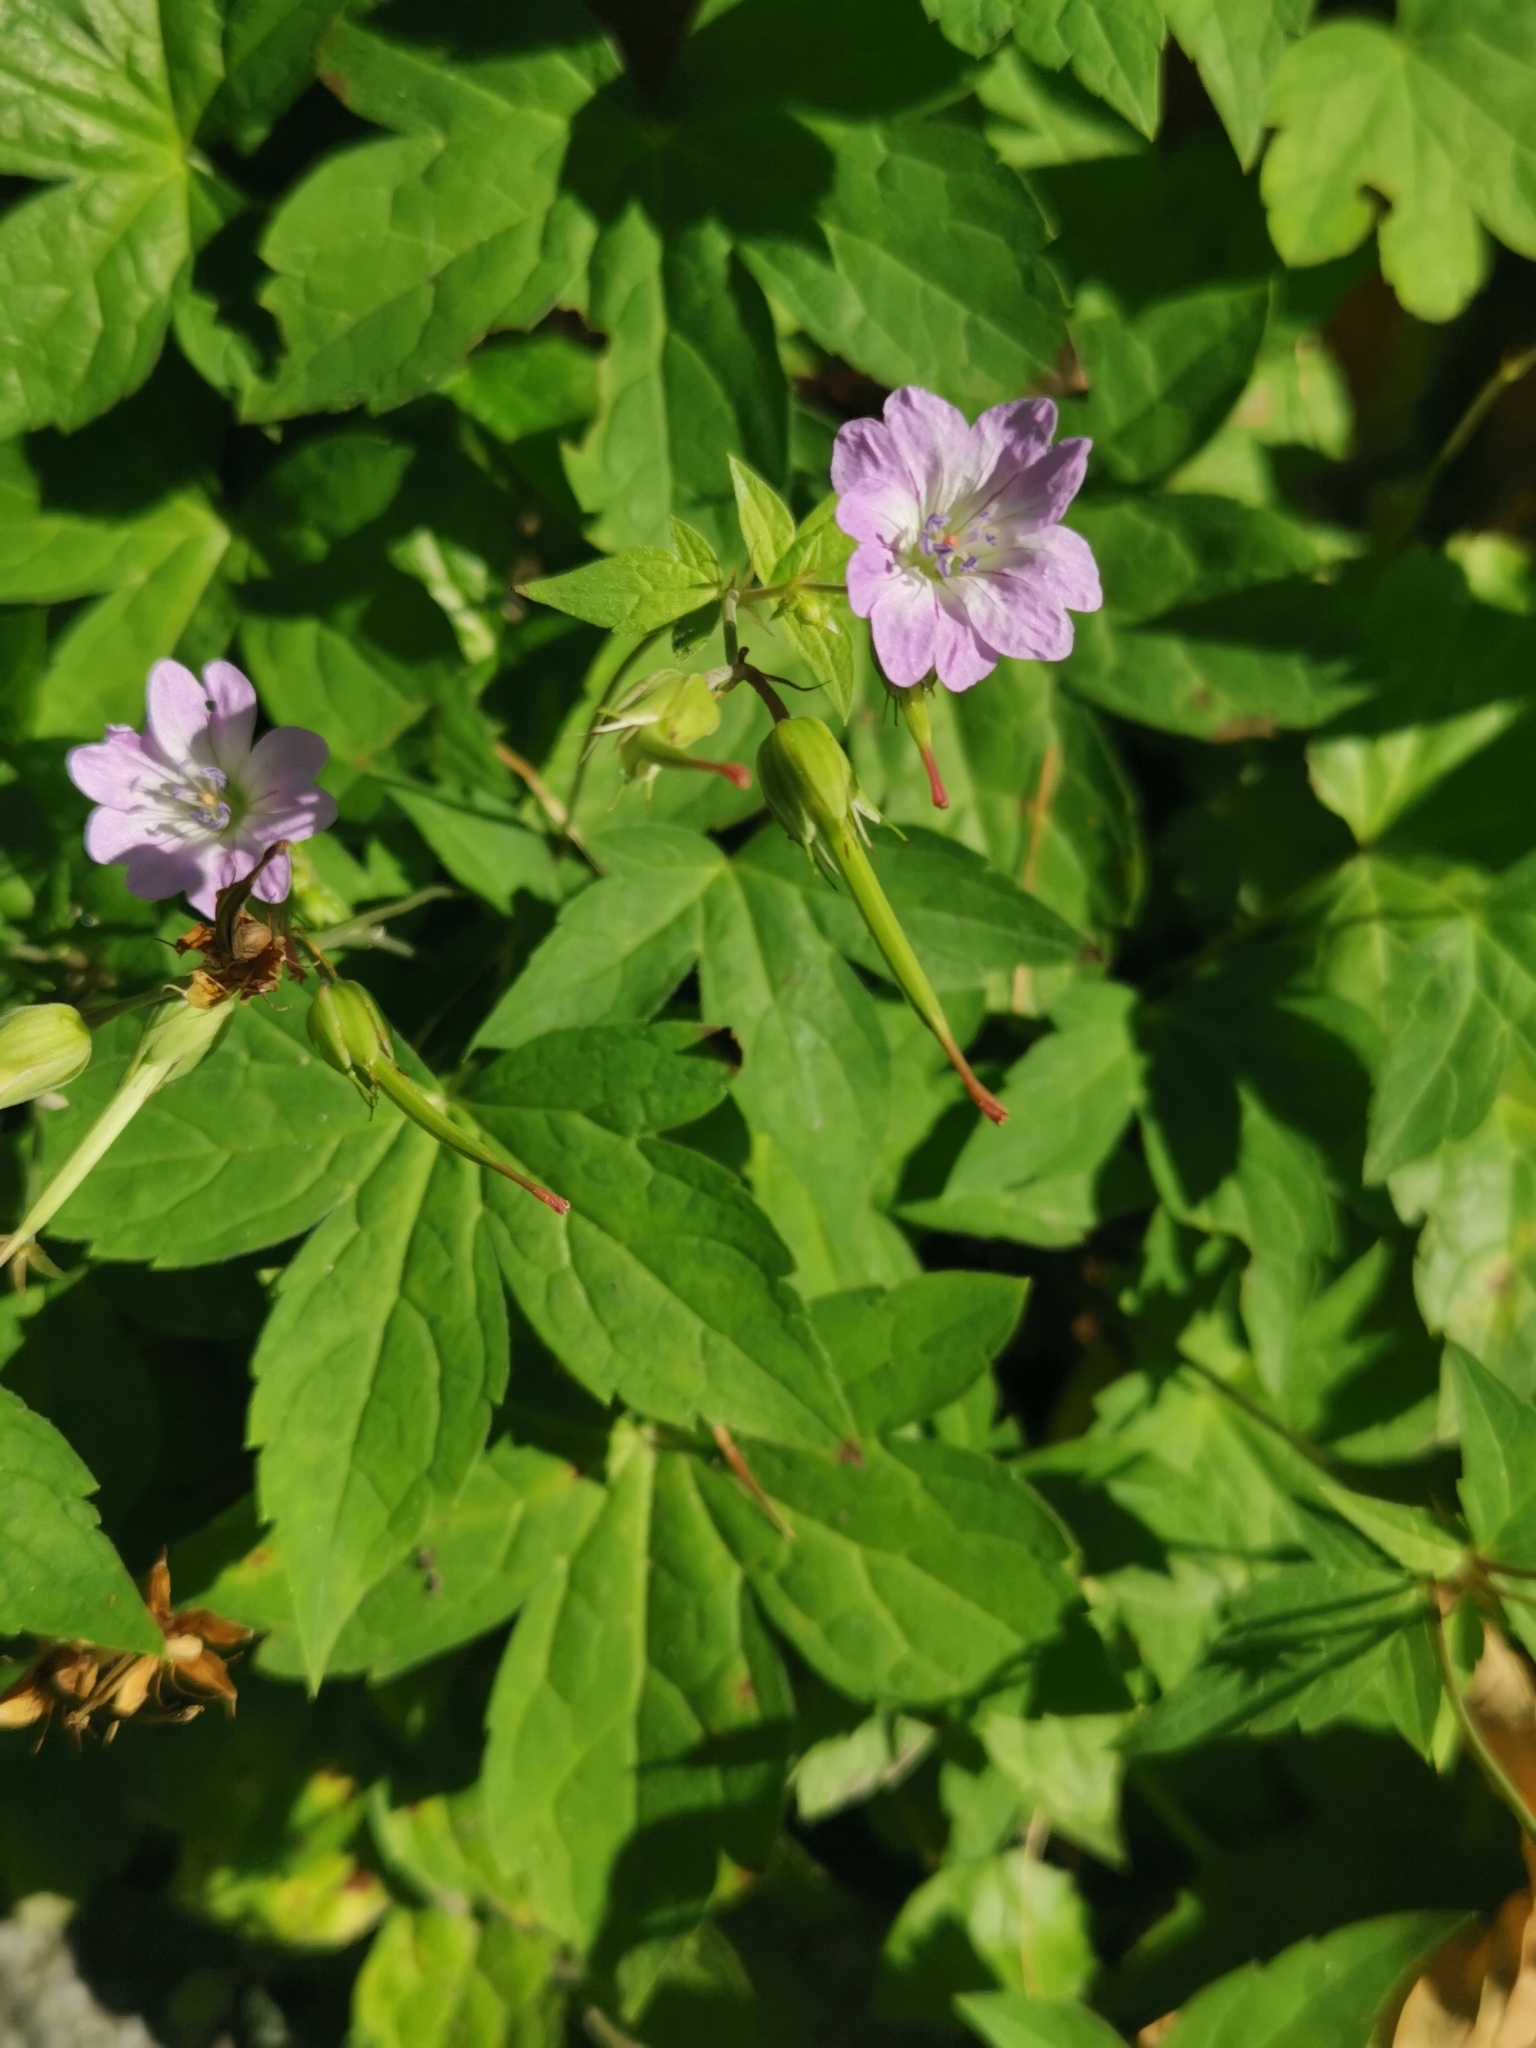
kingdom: Plantae
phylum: Tracheophyta
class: Magnoliopsida
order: Geraniales
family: Geraniaceae
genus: Geranium
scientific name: Geranium nodosum
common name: Knotted crane's-bill
